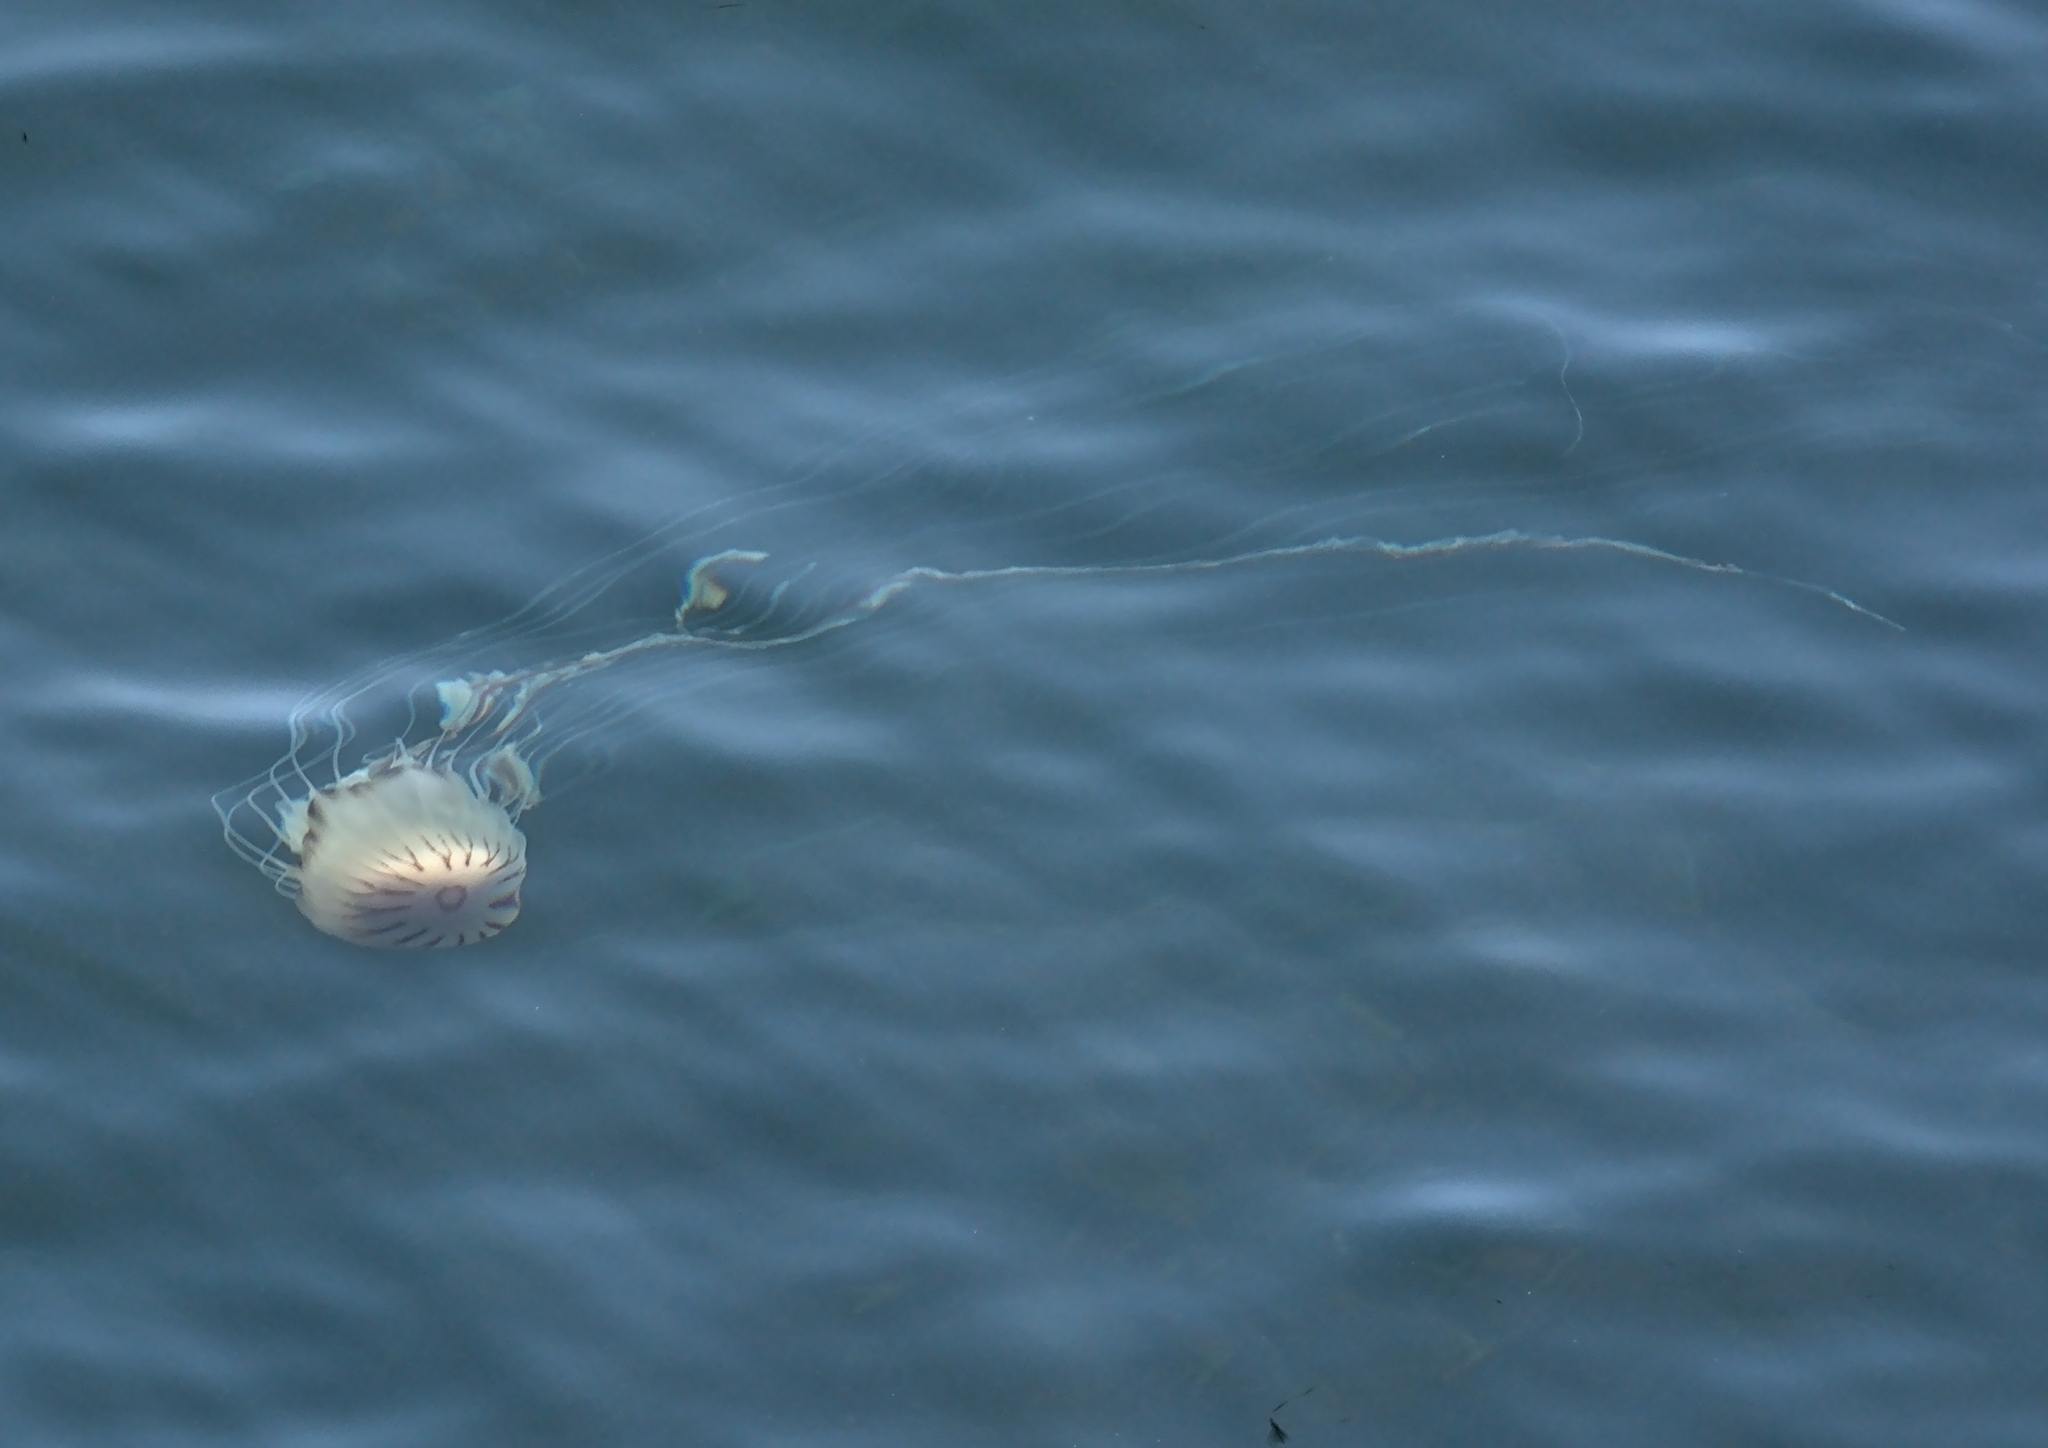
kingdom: Animalia
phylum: Cnidaria
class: Scyphozoa
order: Semaeostomeae
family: Pelagiidae
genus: Chrysaora
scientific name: Chrysaora hysoscella
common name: Compass jellyfish
